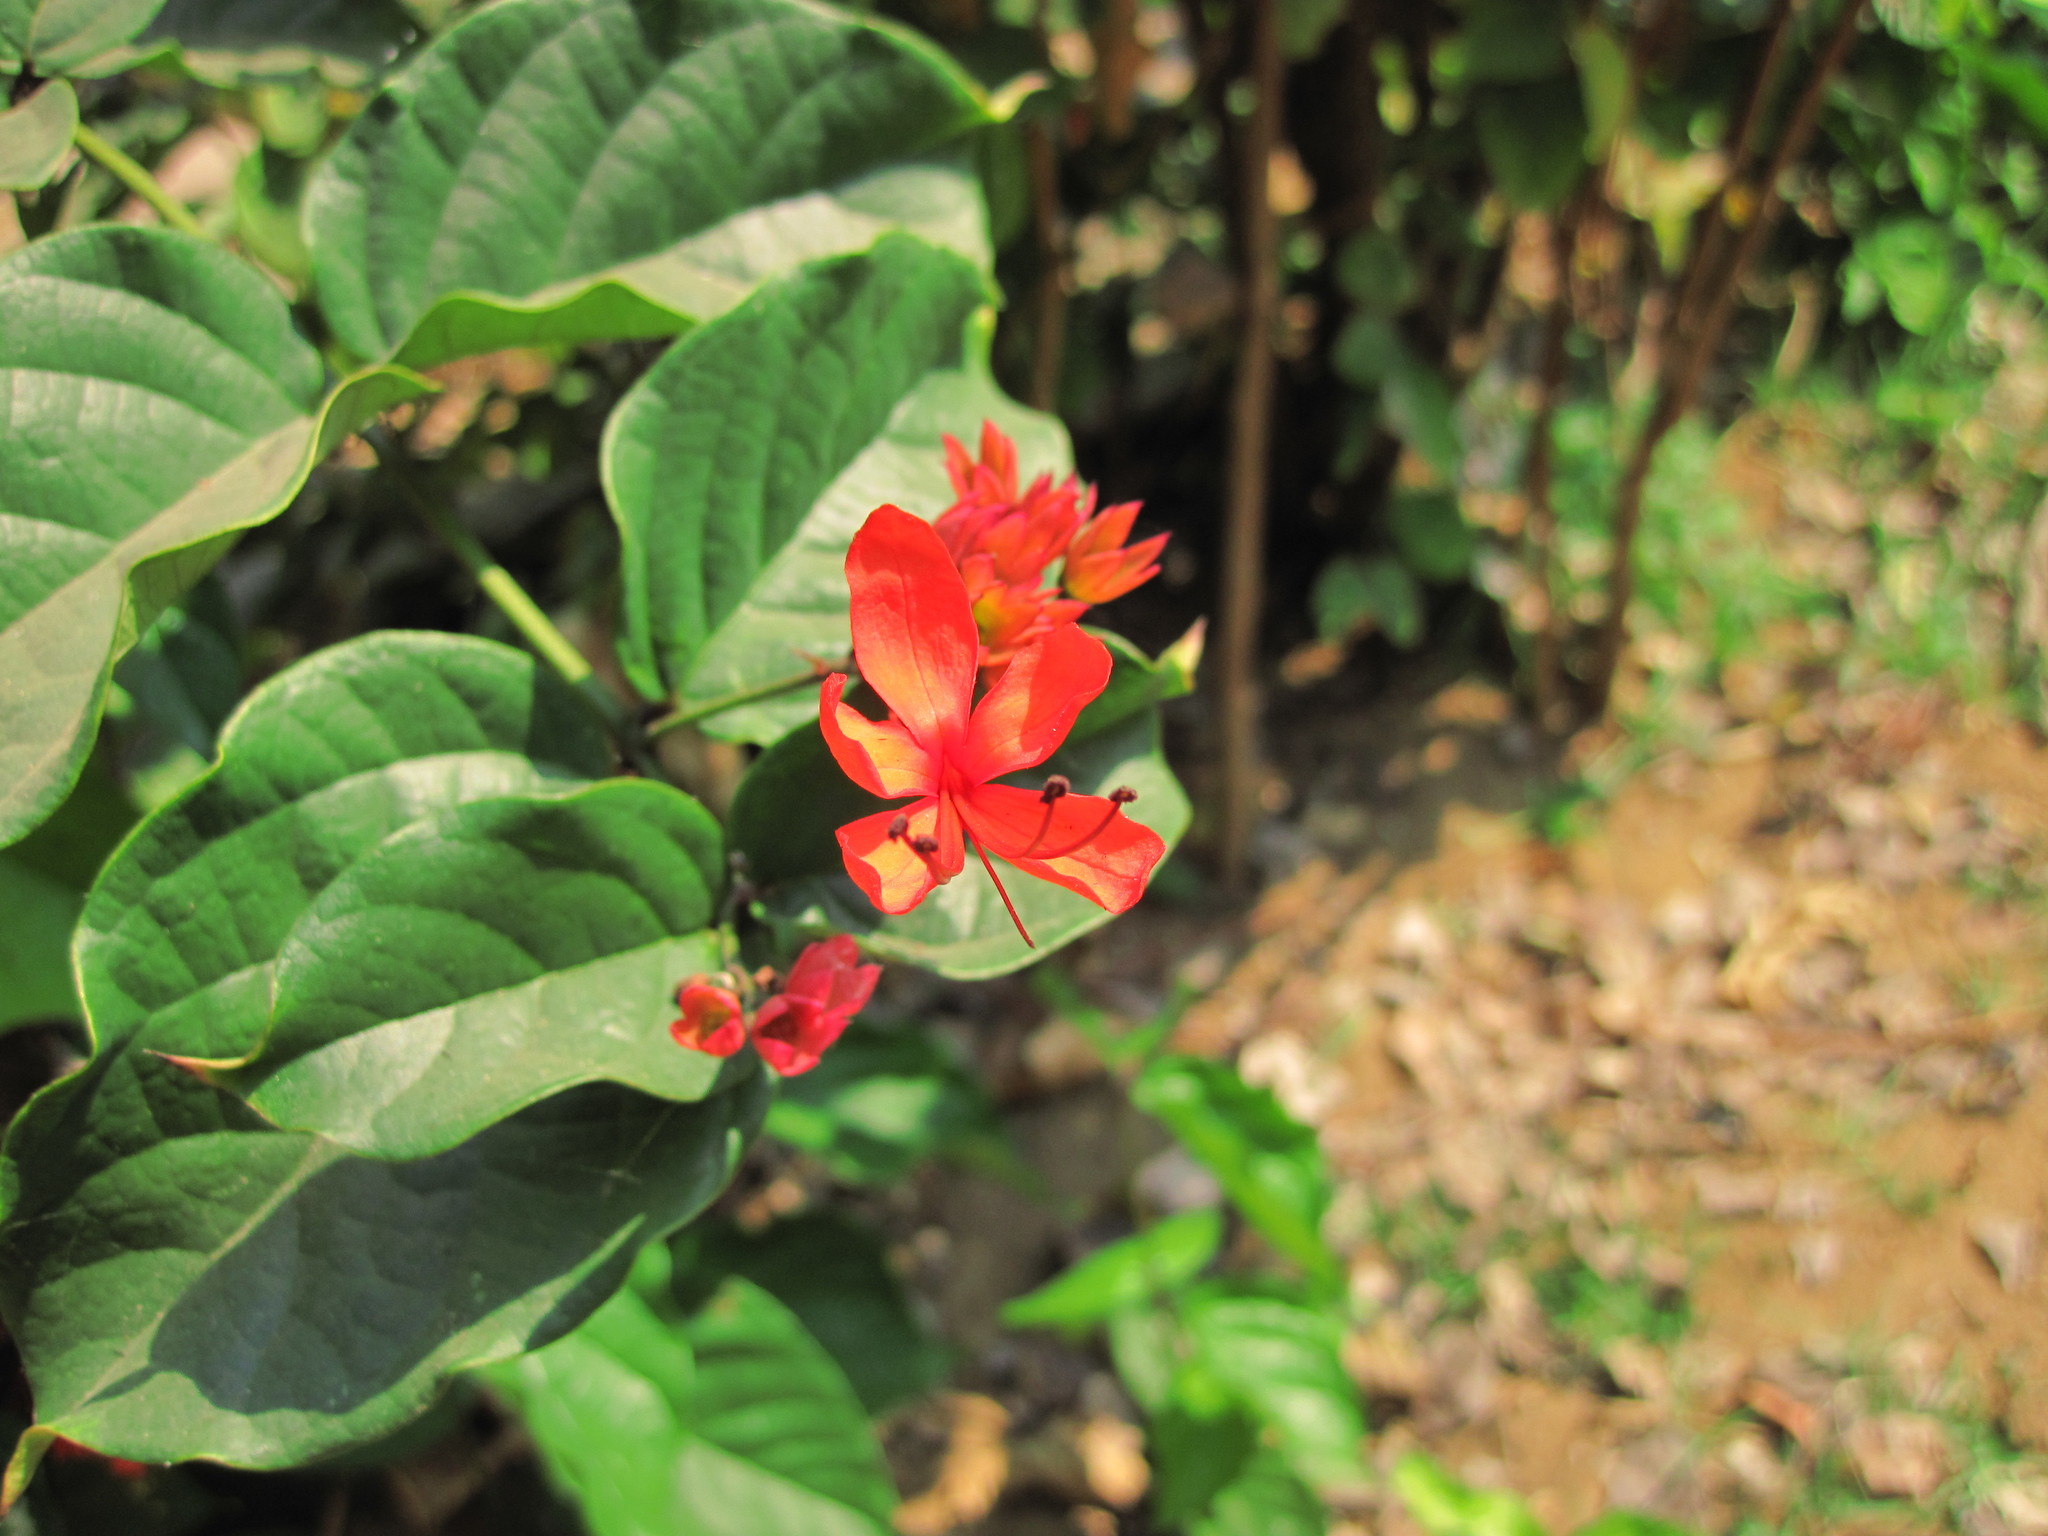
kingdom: Plantae
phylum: Tracheophyta
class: Magnoliopsida
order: Lamiales
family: Lamiaceae
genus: Clerodendrum
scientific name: Clerodendrum splendens
